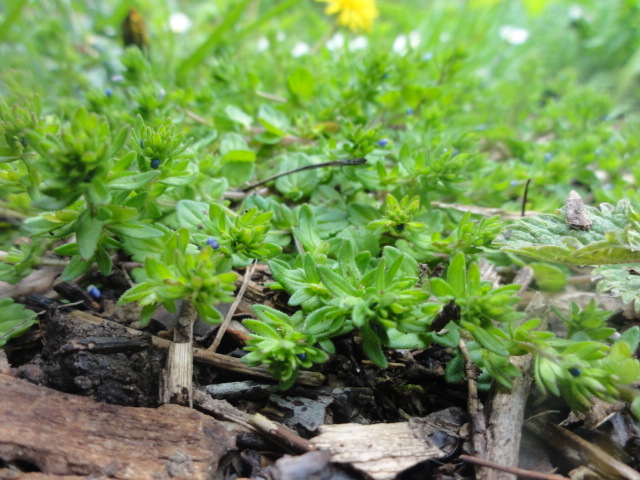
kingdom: Plantae
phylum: Tracheophyta
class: Magnoliopsida
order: Lamiales
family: Plantaginaceae
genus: Veronica
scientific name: Veronica arvensis
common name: Corn speedwell
